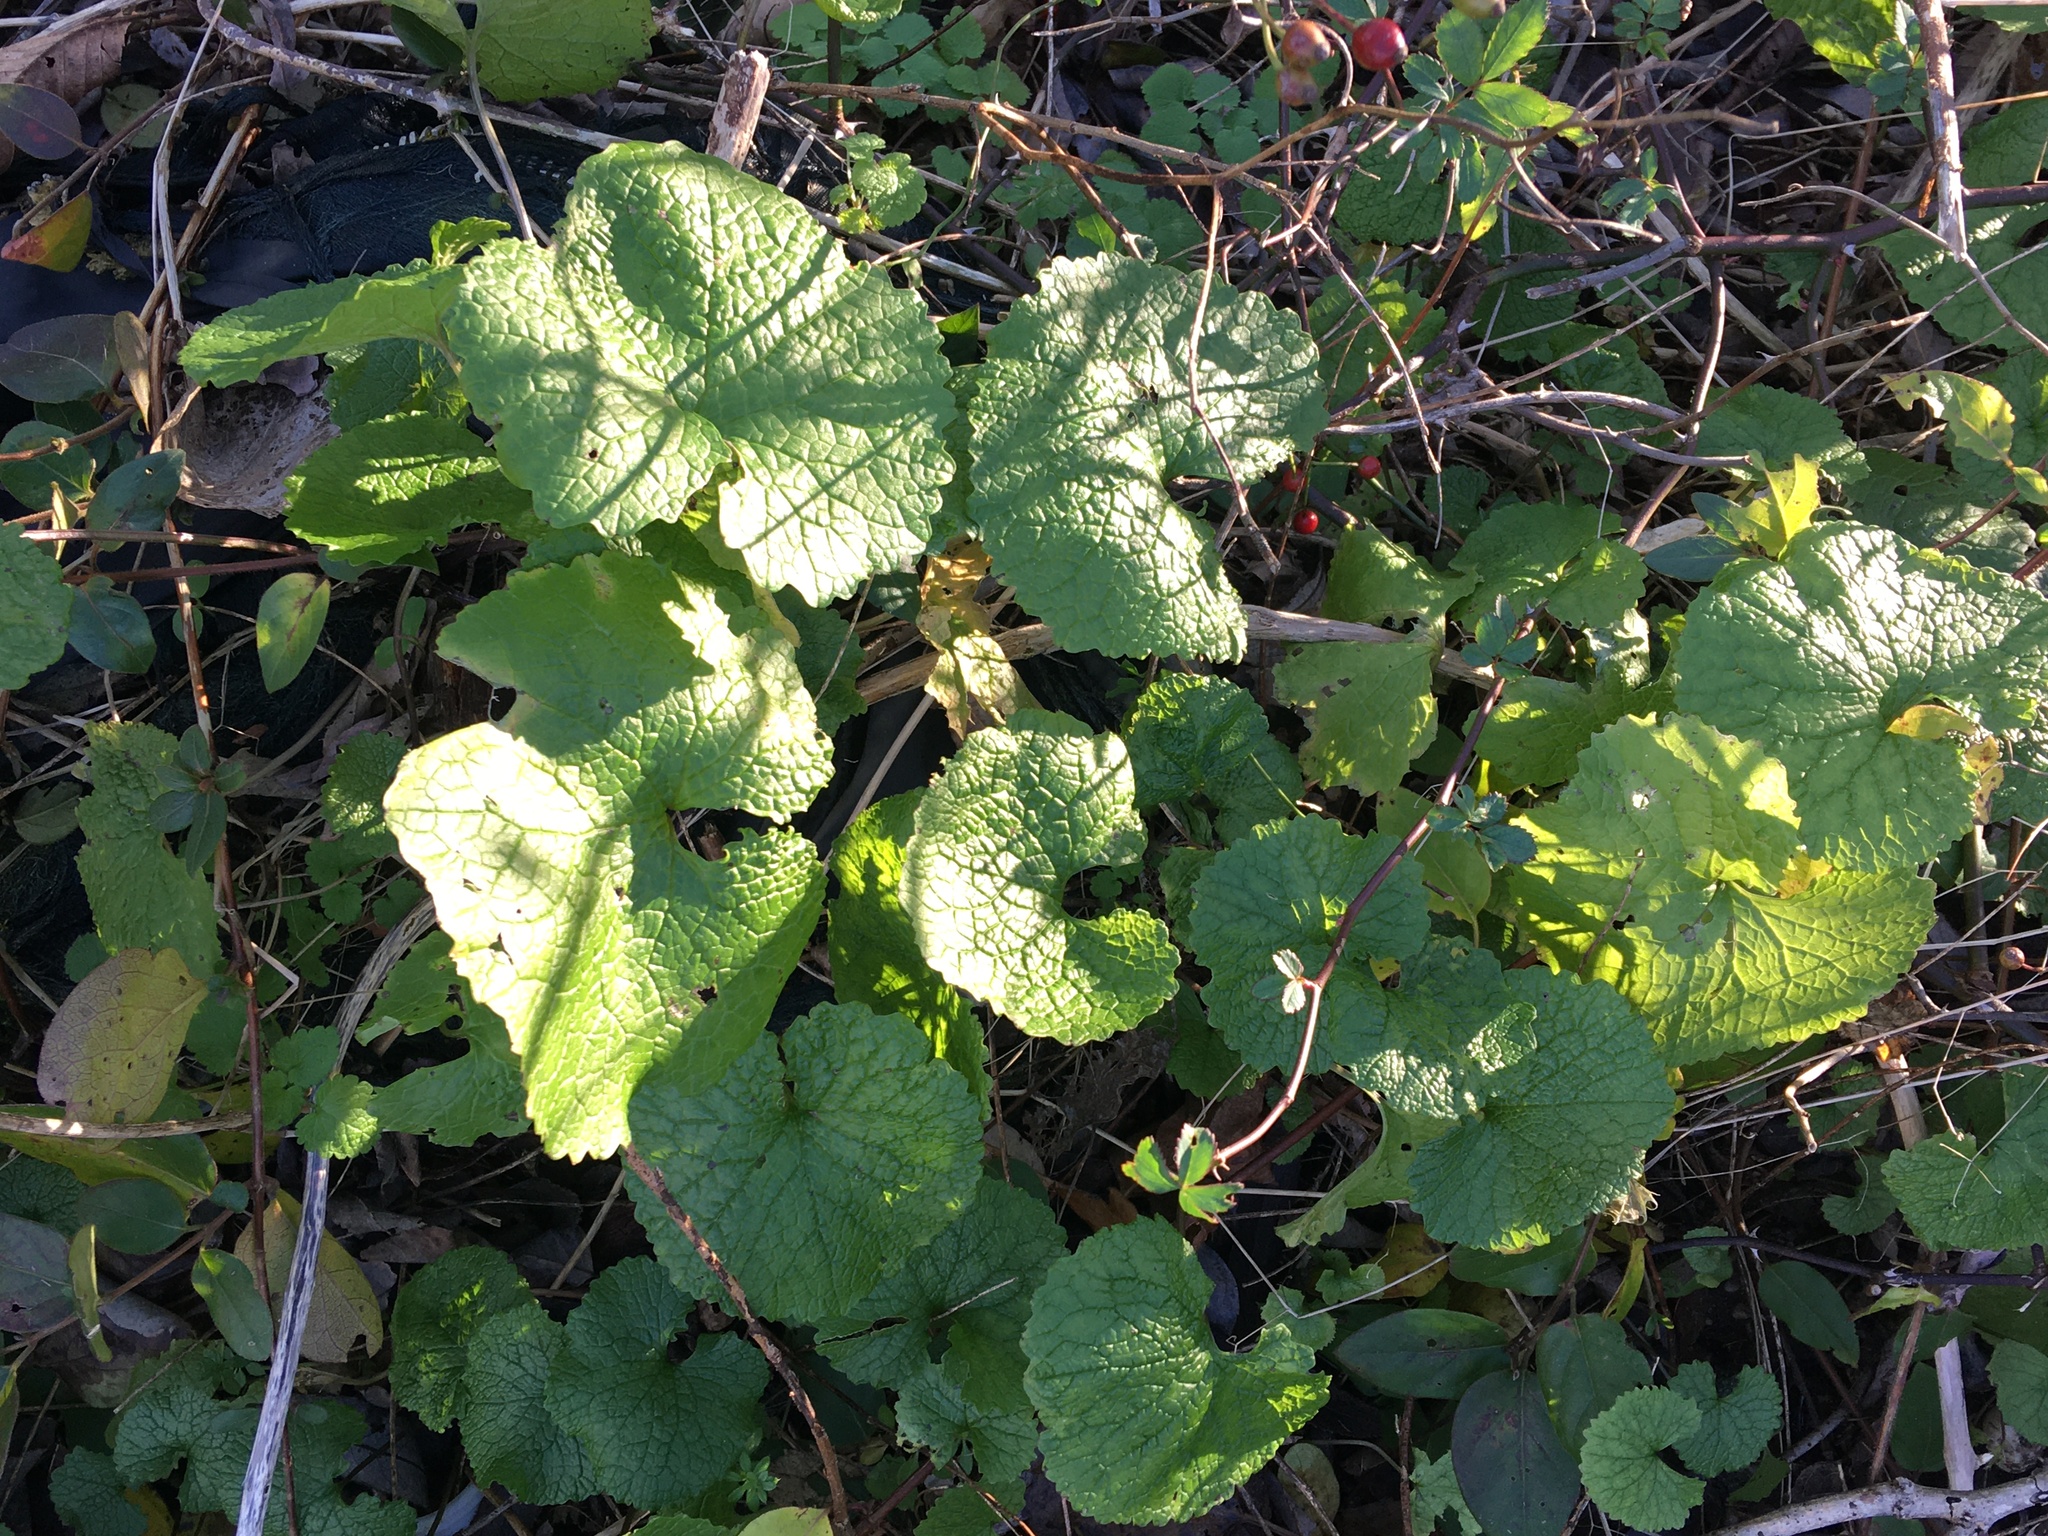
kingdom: Plantae
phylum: Tracheophyta
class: Magnoliopsida
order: Brassicales
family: Brassicaceae
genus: Alliaria
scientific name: Alliaria petiolata
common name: Garlic mustard
